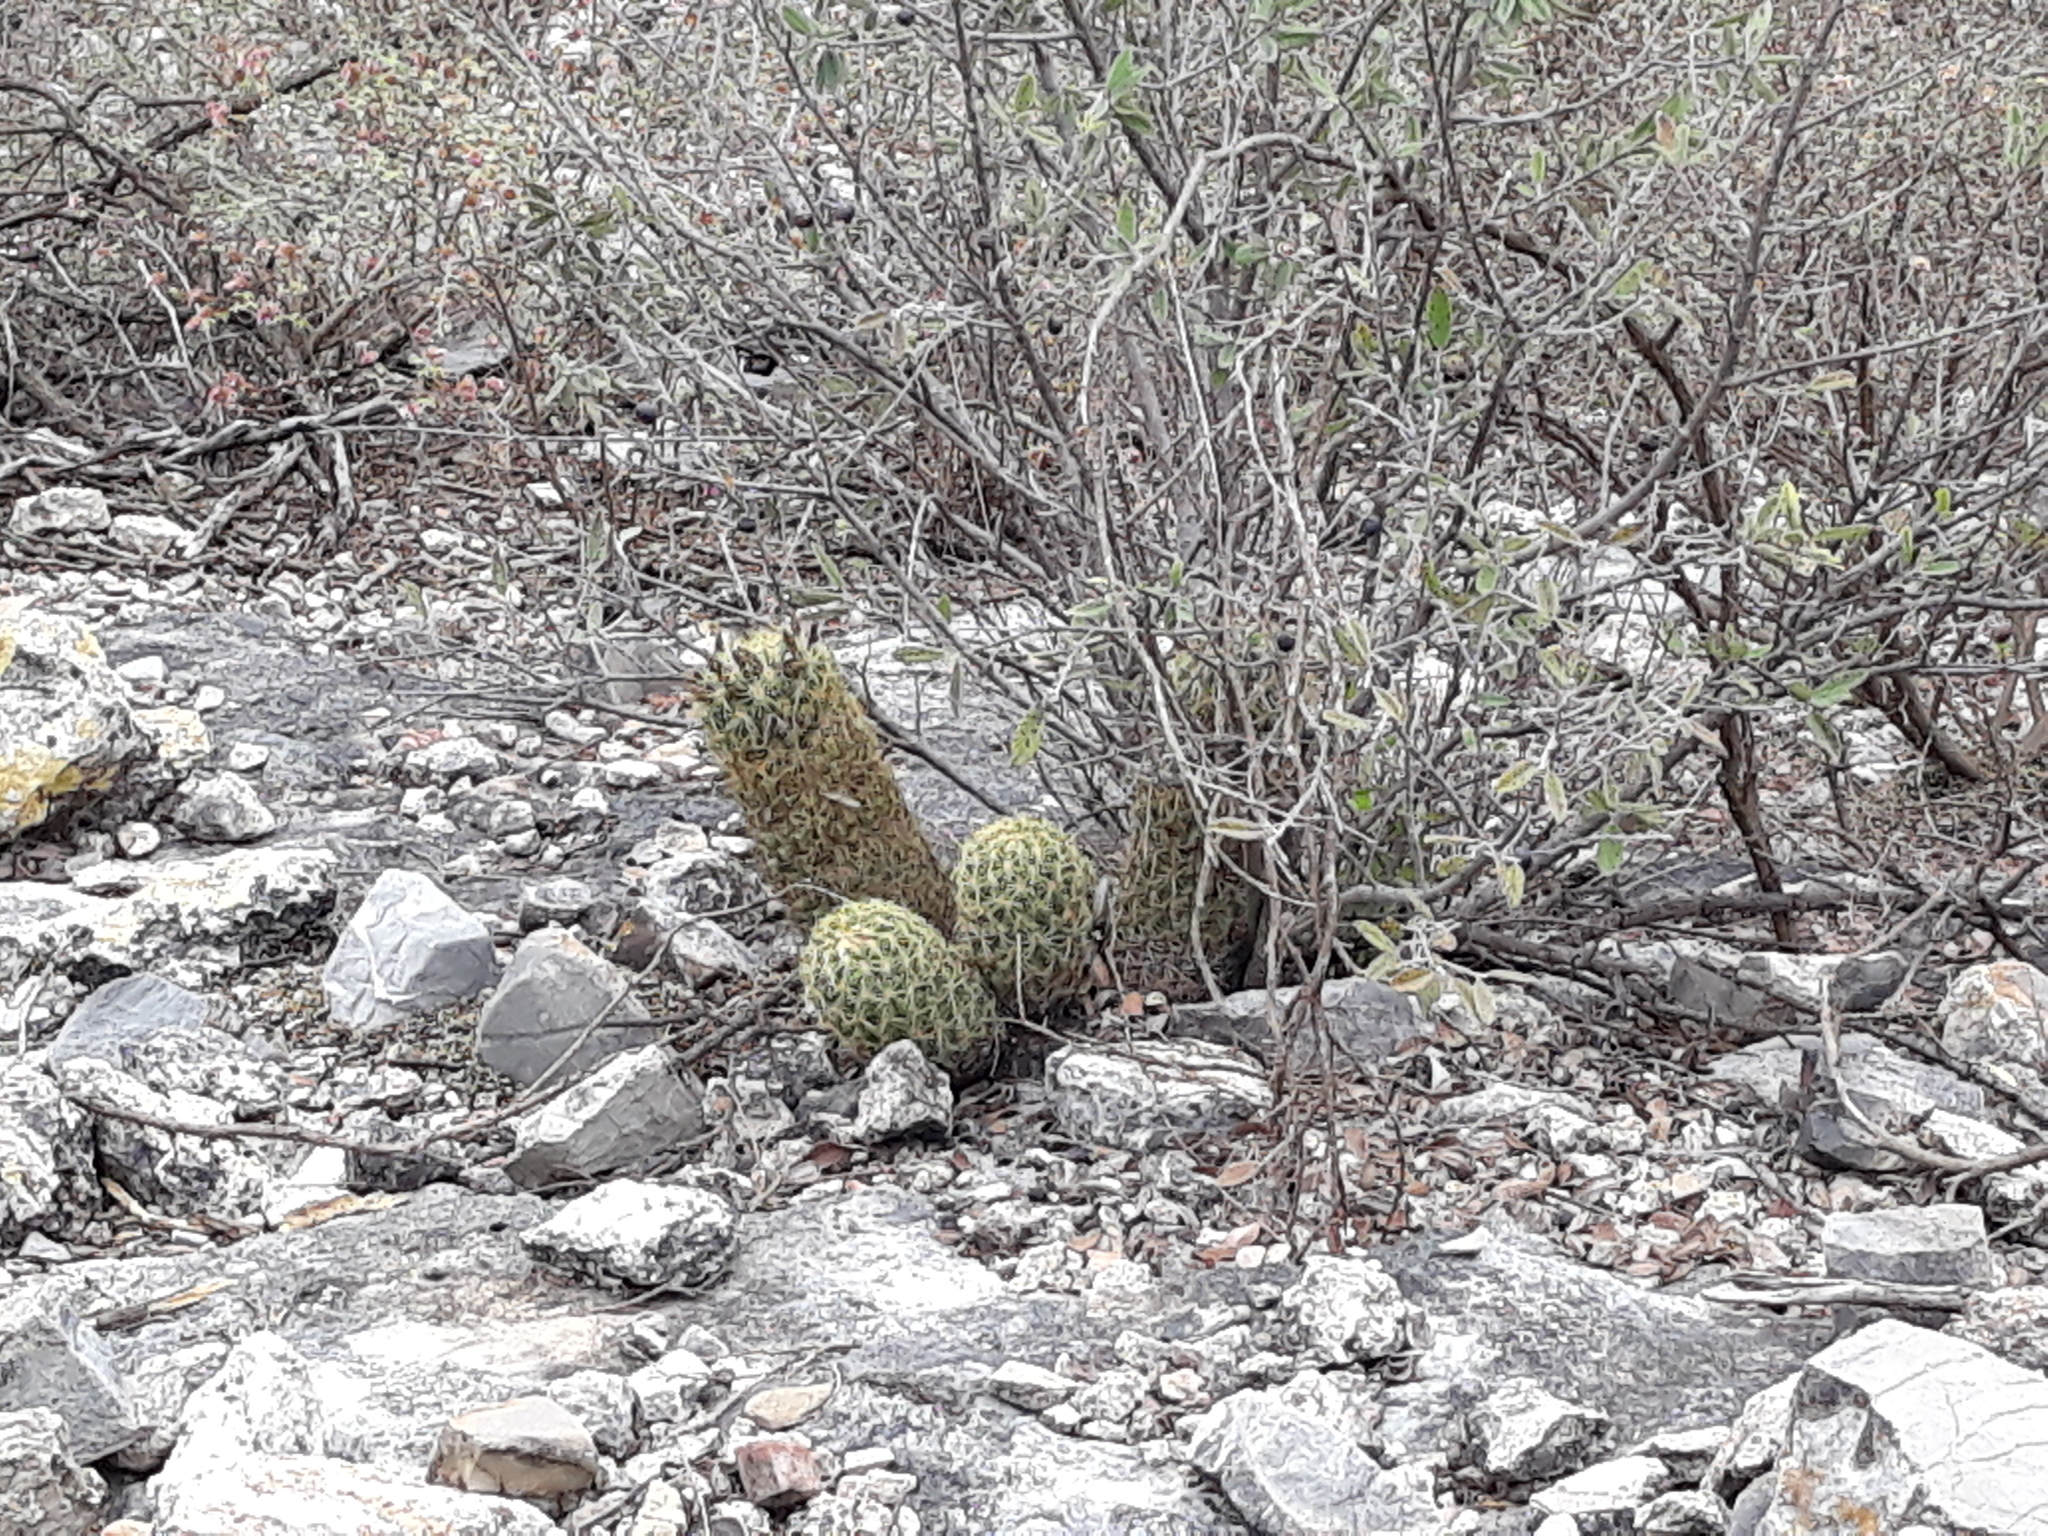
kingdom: Plantae
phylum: Tracheophyta
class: Magnoliopsida
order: Caryophyllales
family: Cactaceae
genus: Coryphantha
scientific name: Coryphantha erecta
